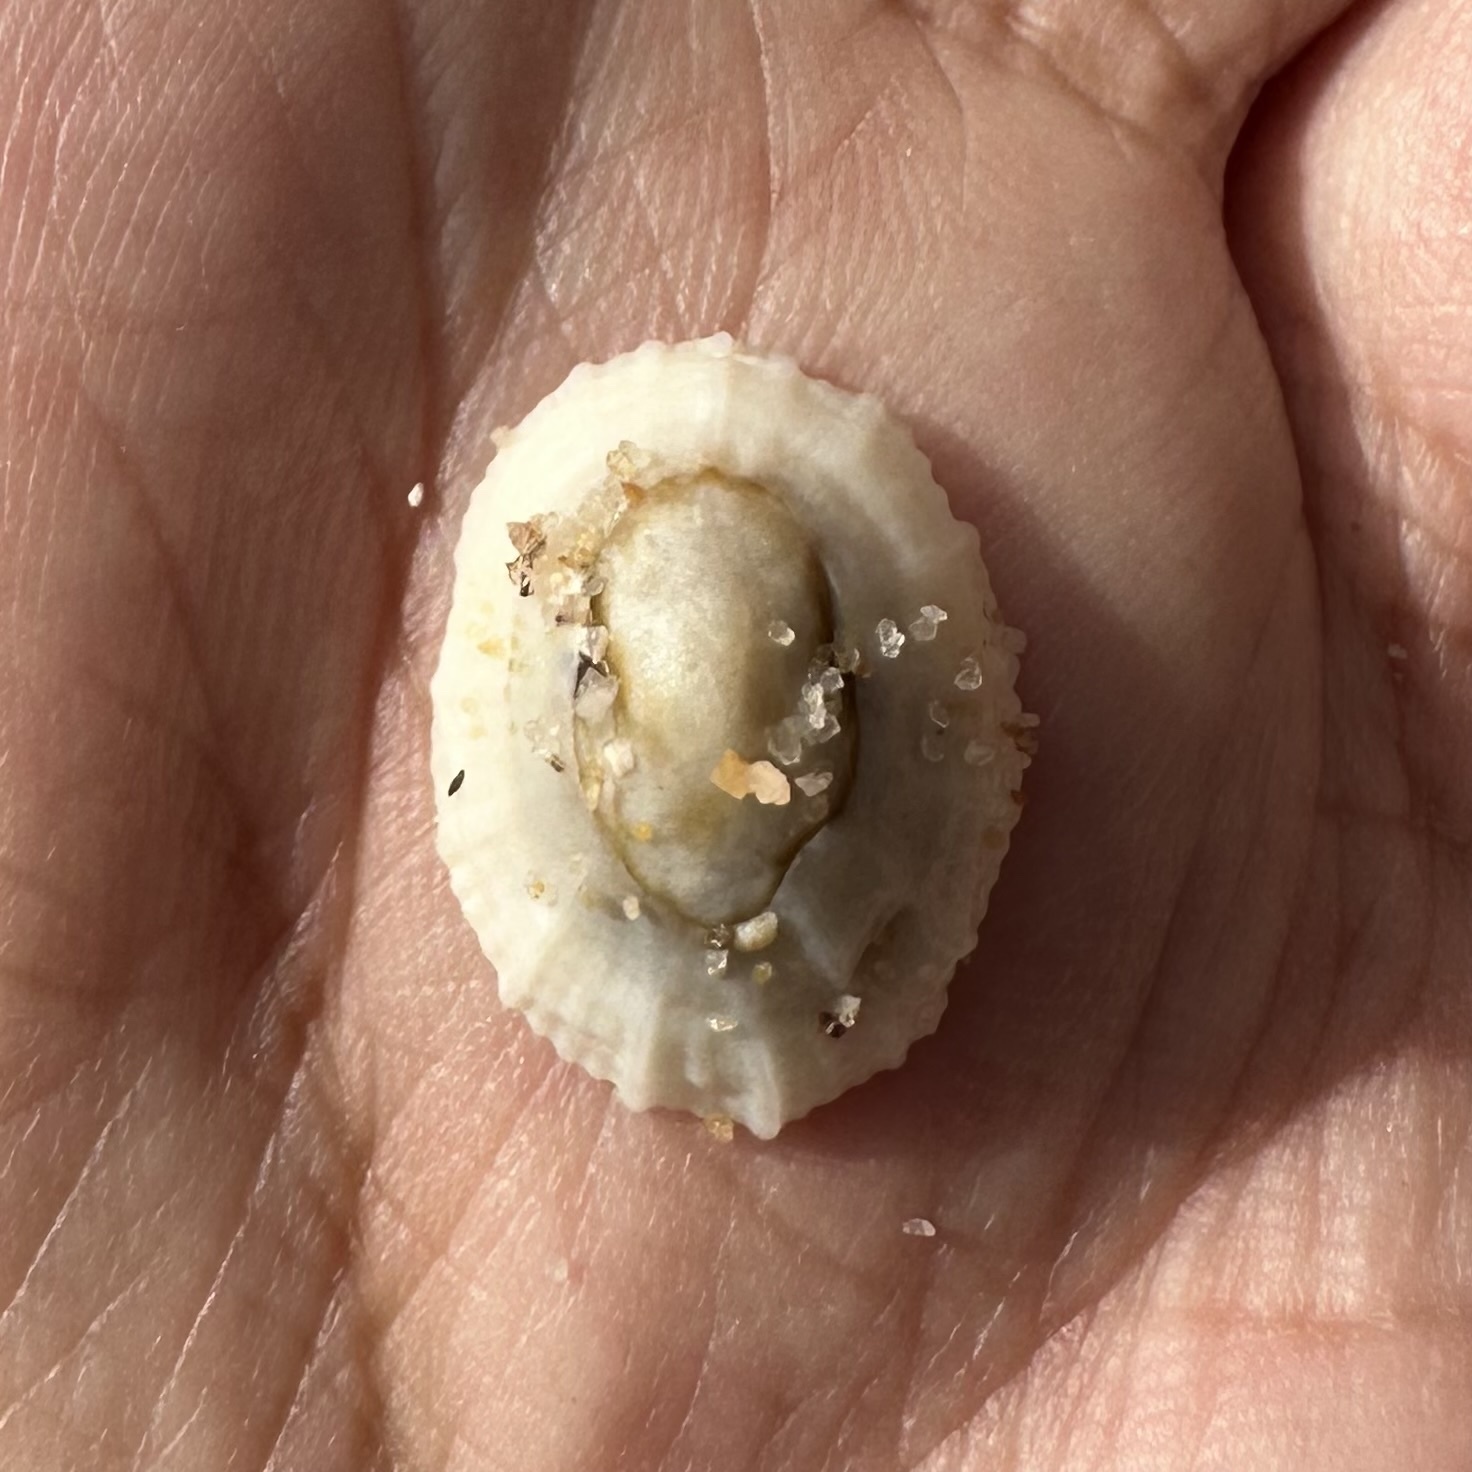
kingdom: Animalia
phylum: Mollusca
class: Gastropoda
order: Lepetellida
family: Fissurellidae
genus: Montfortula
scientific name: Montfortula rugosa
